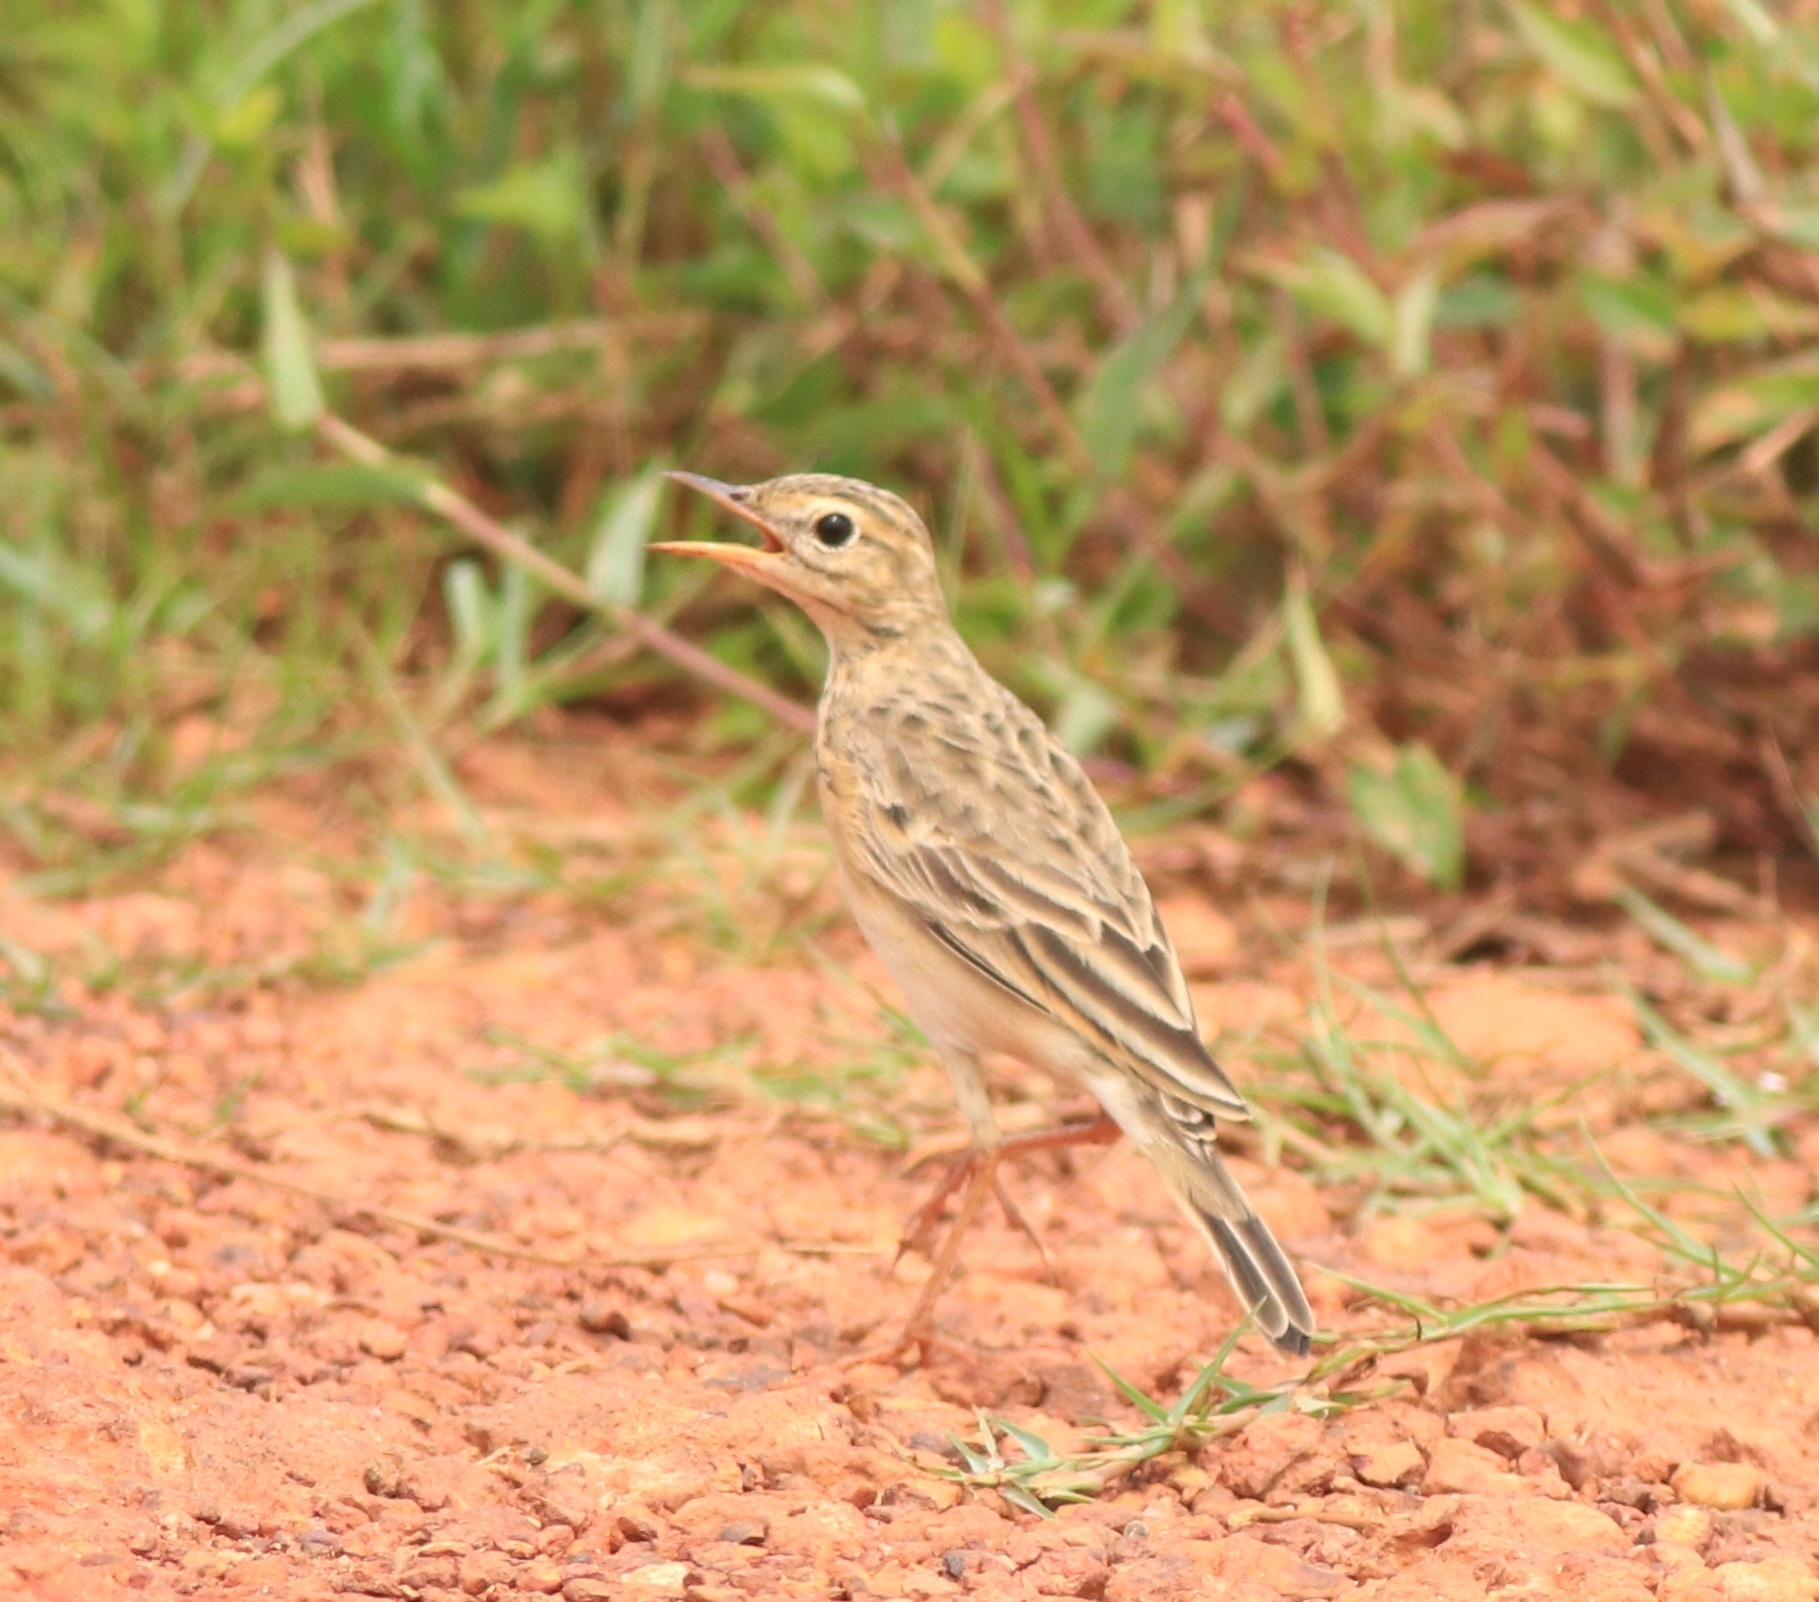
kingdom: Animalia
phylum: Chordata
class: Aves
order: Passeriformes
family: Motacillidae
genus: Anthus
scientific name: Anthus rufulus
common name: Paddyfield pipit
